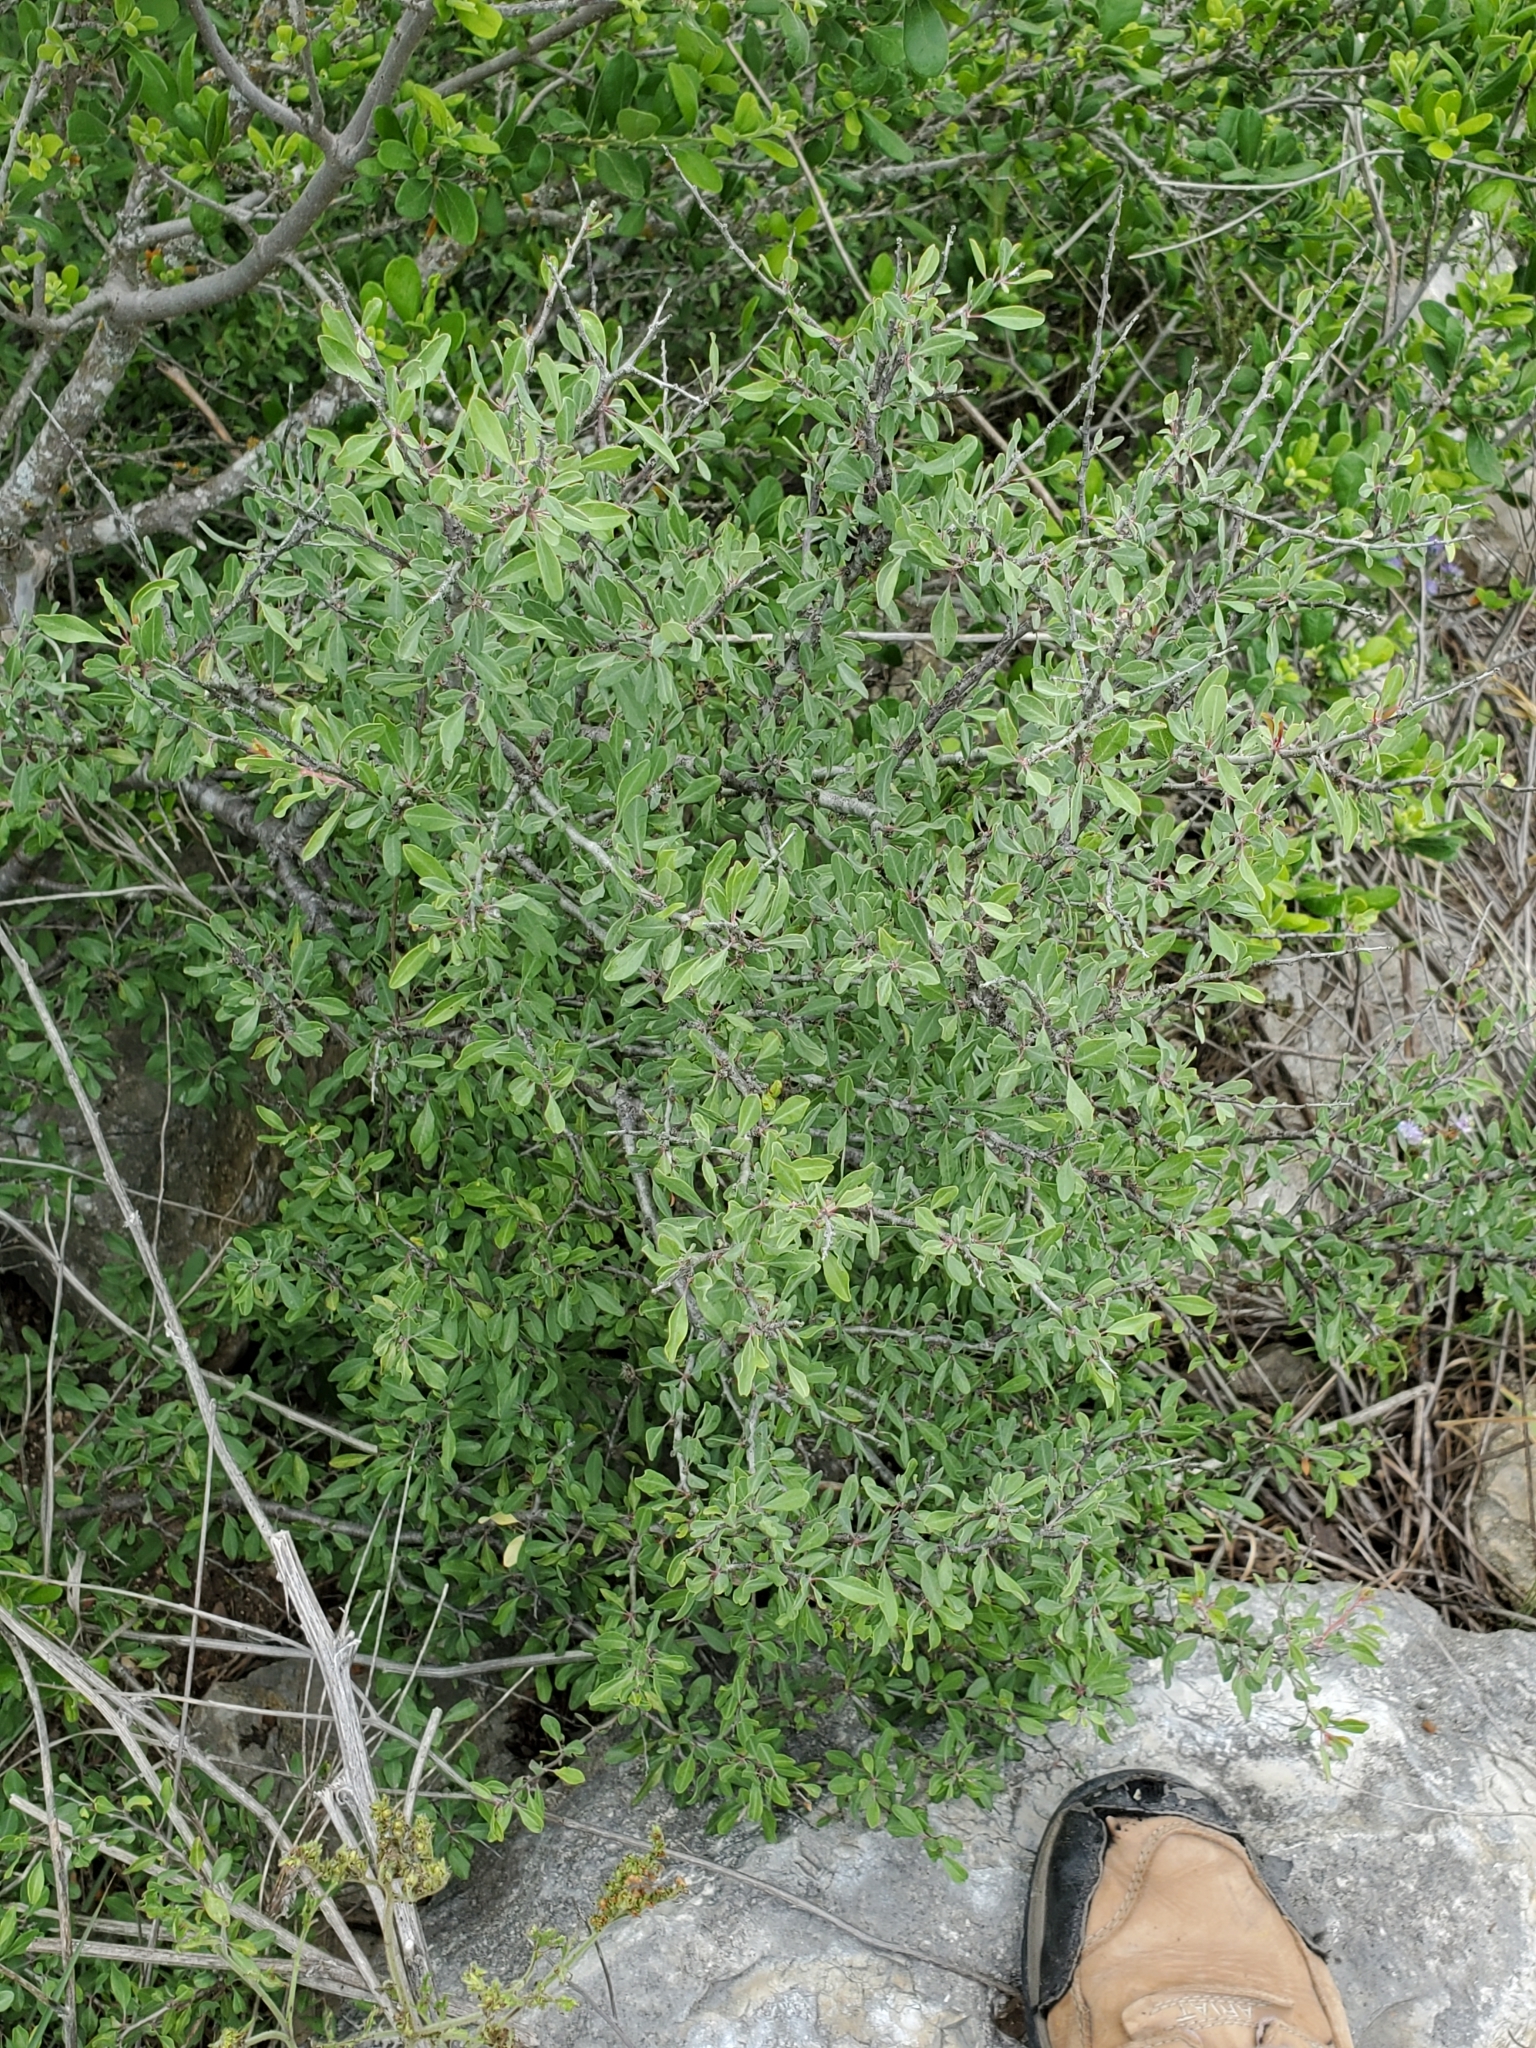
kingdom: Plantae
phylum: Tracheophyta
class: Magnoliopsida
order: Ericales
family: Sapotaceae
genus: Sideroxylon
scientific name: Sideroxylon lanuginosum
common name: Chittamwood
